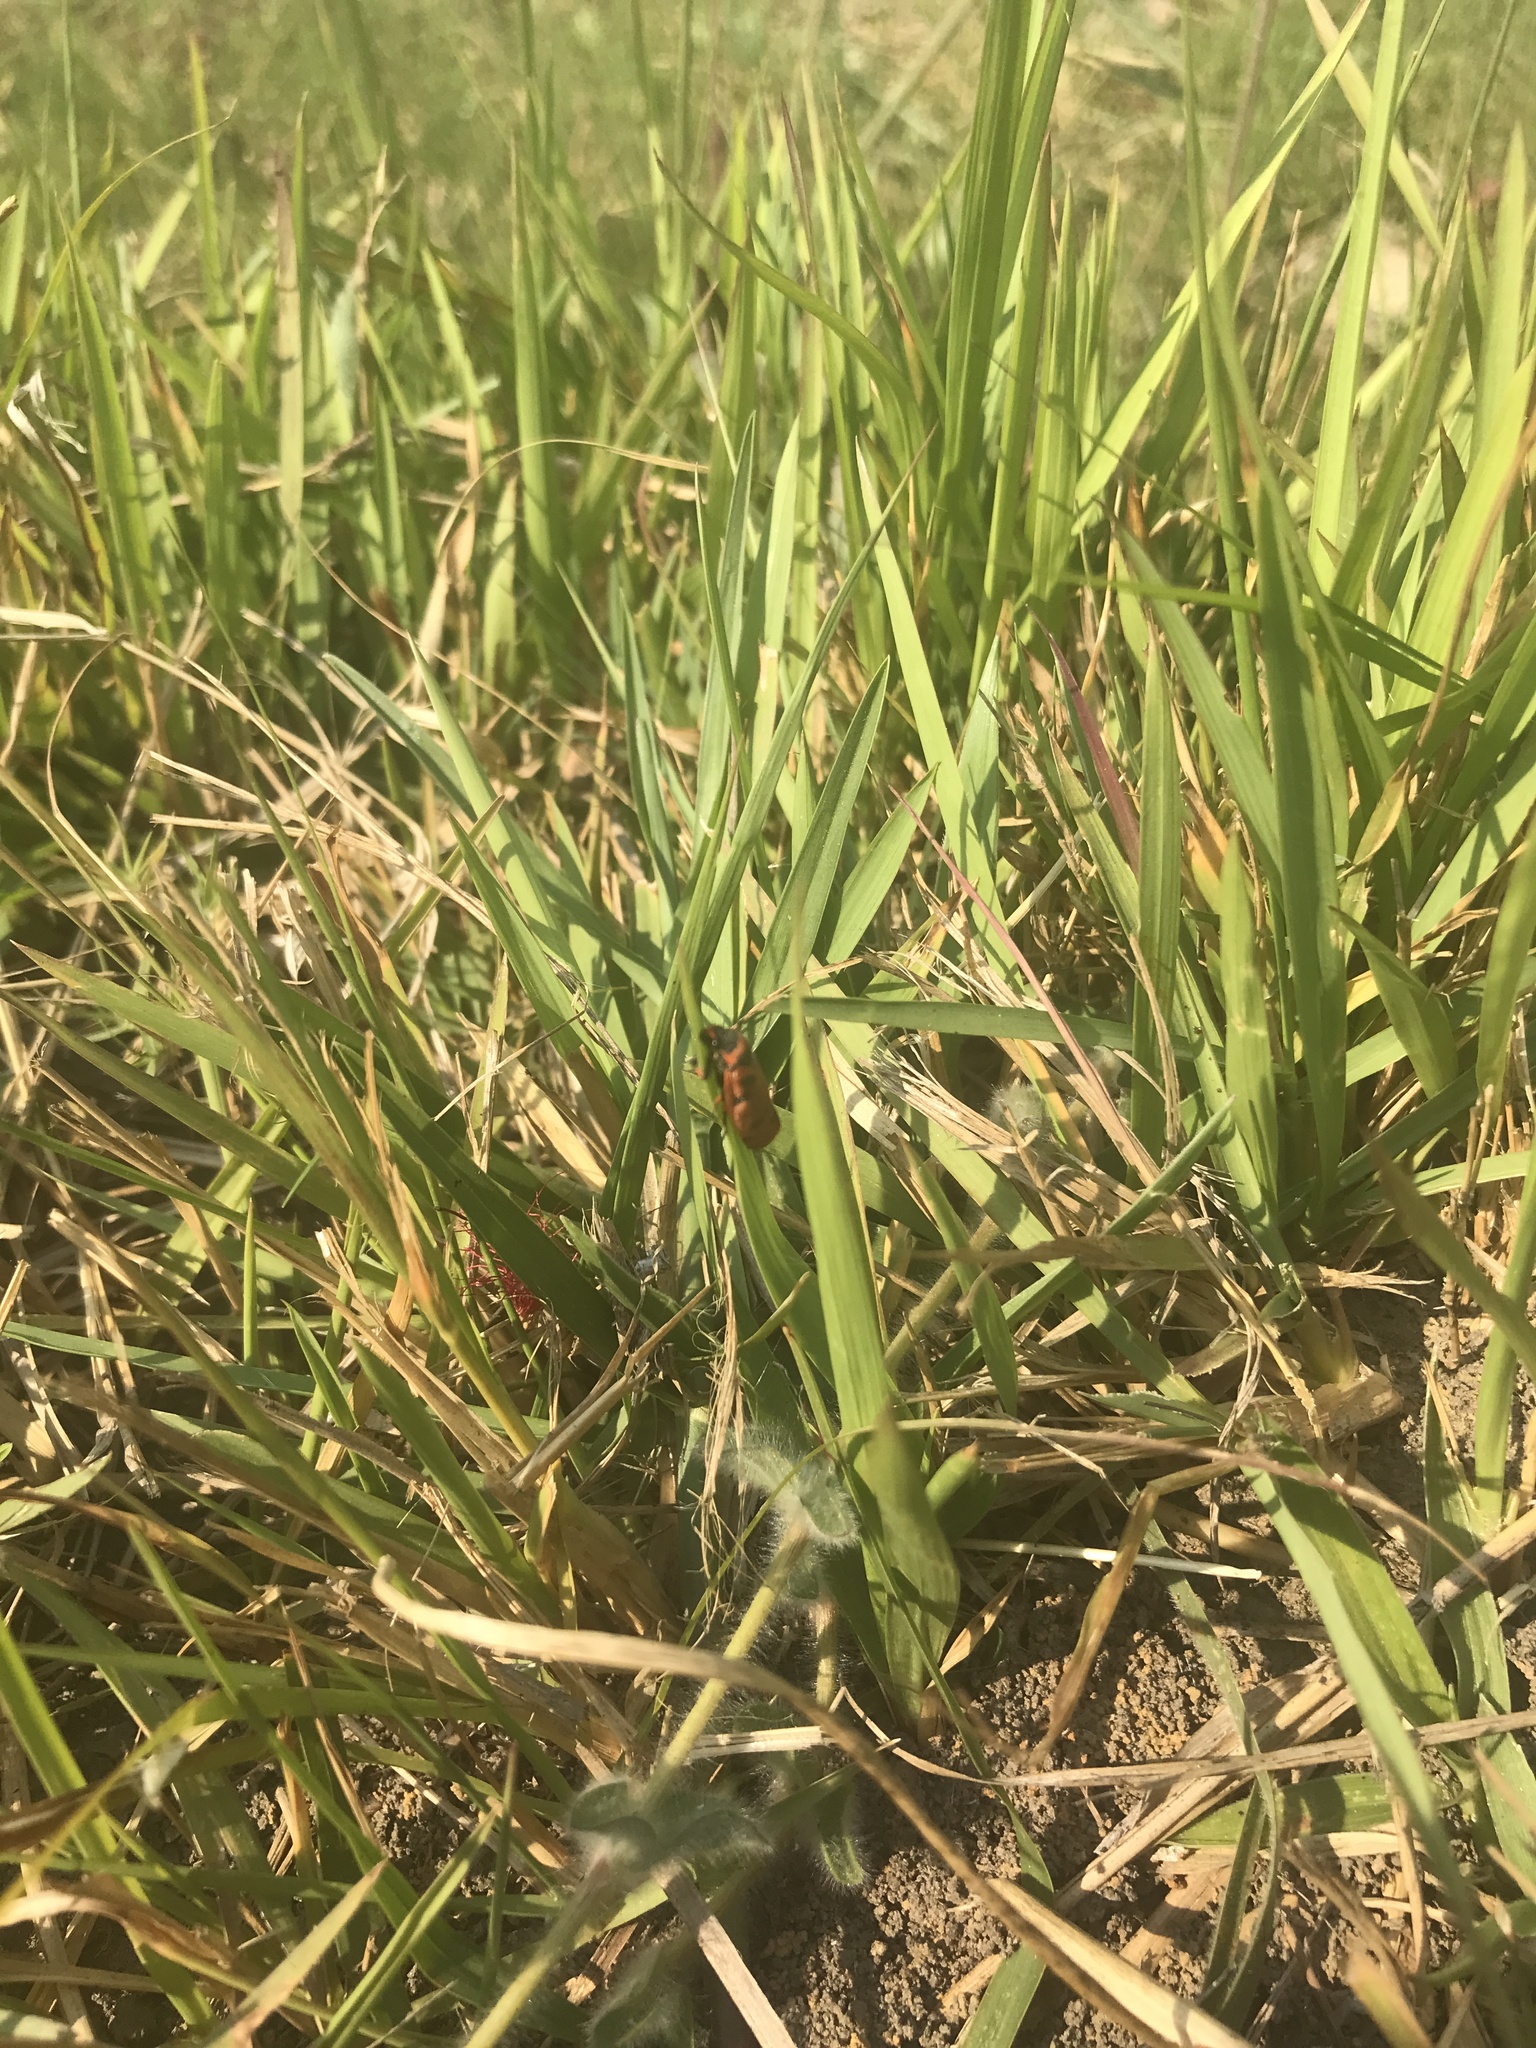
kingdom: Animalia
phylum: Arthropoda
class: Insecta
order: Hemiptera
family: Cercopidae
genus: Locris
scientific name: Locris arithmetica
